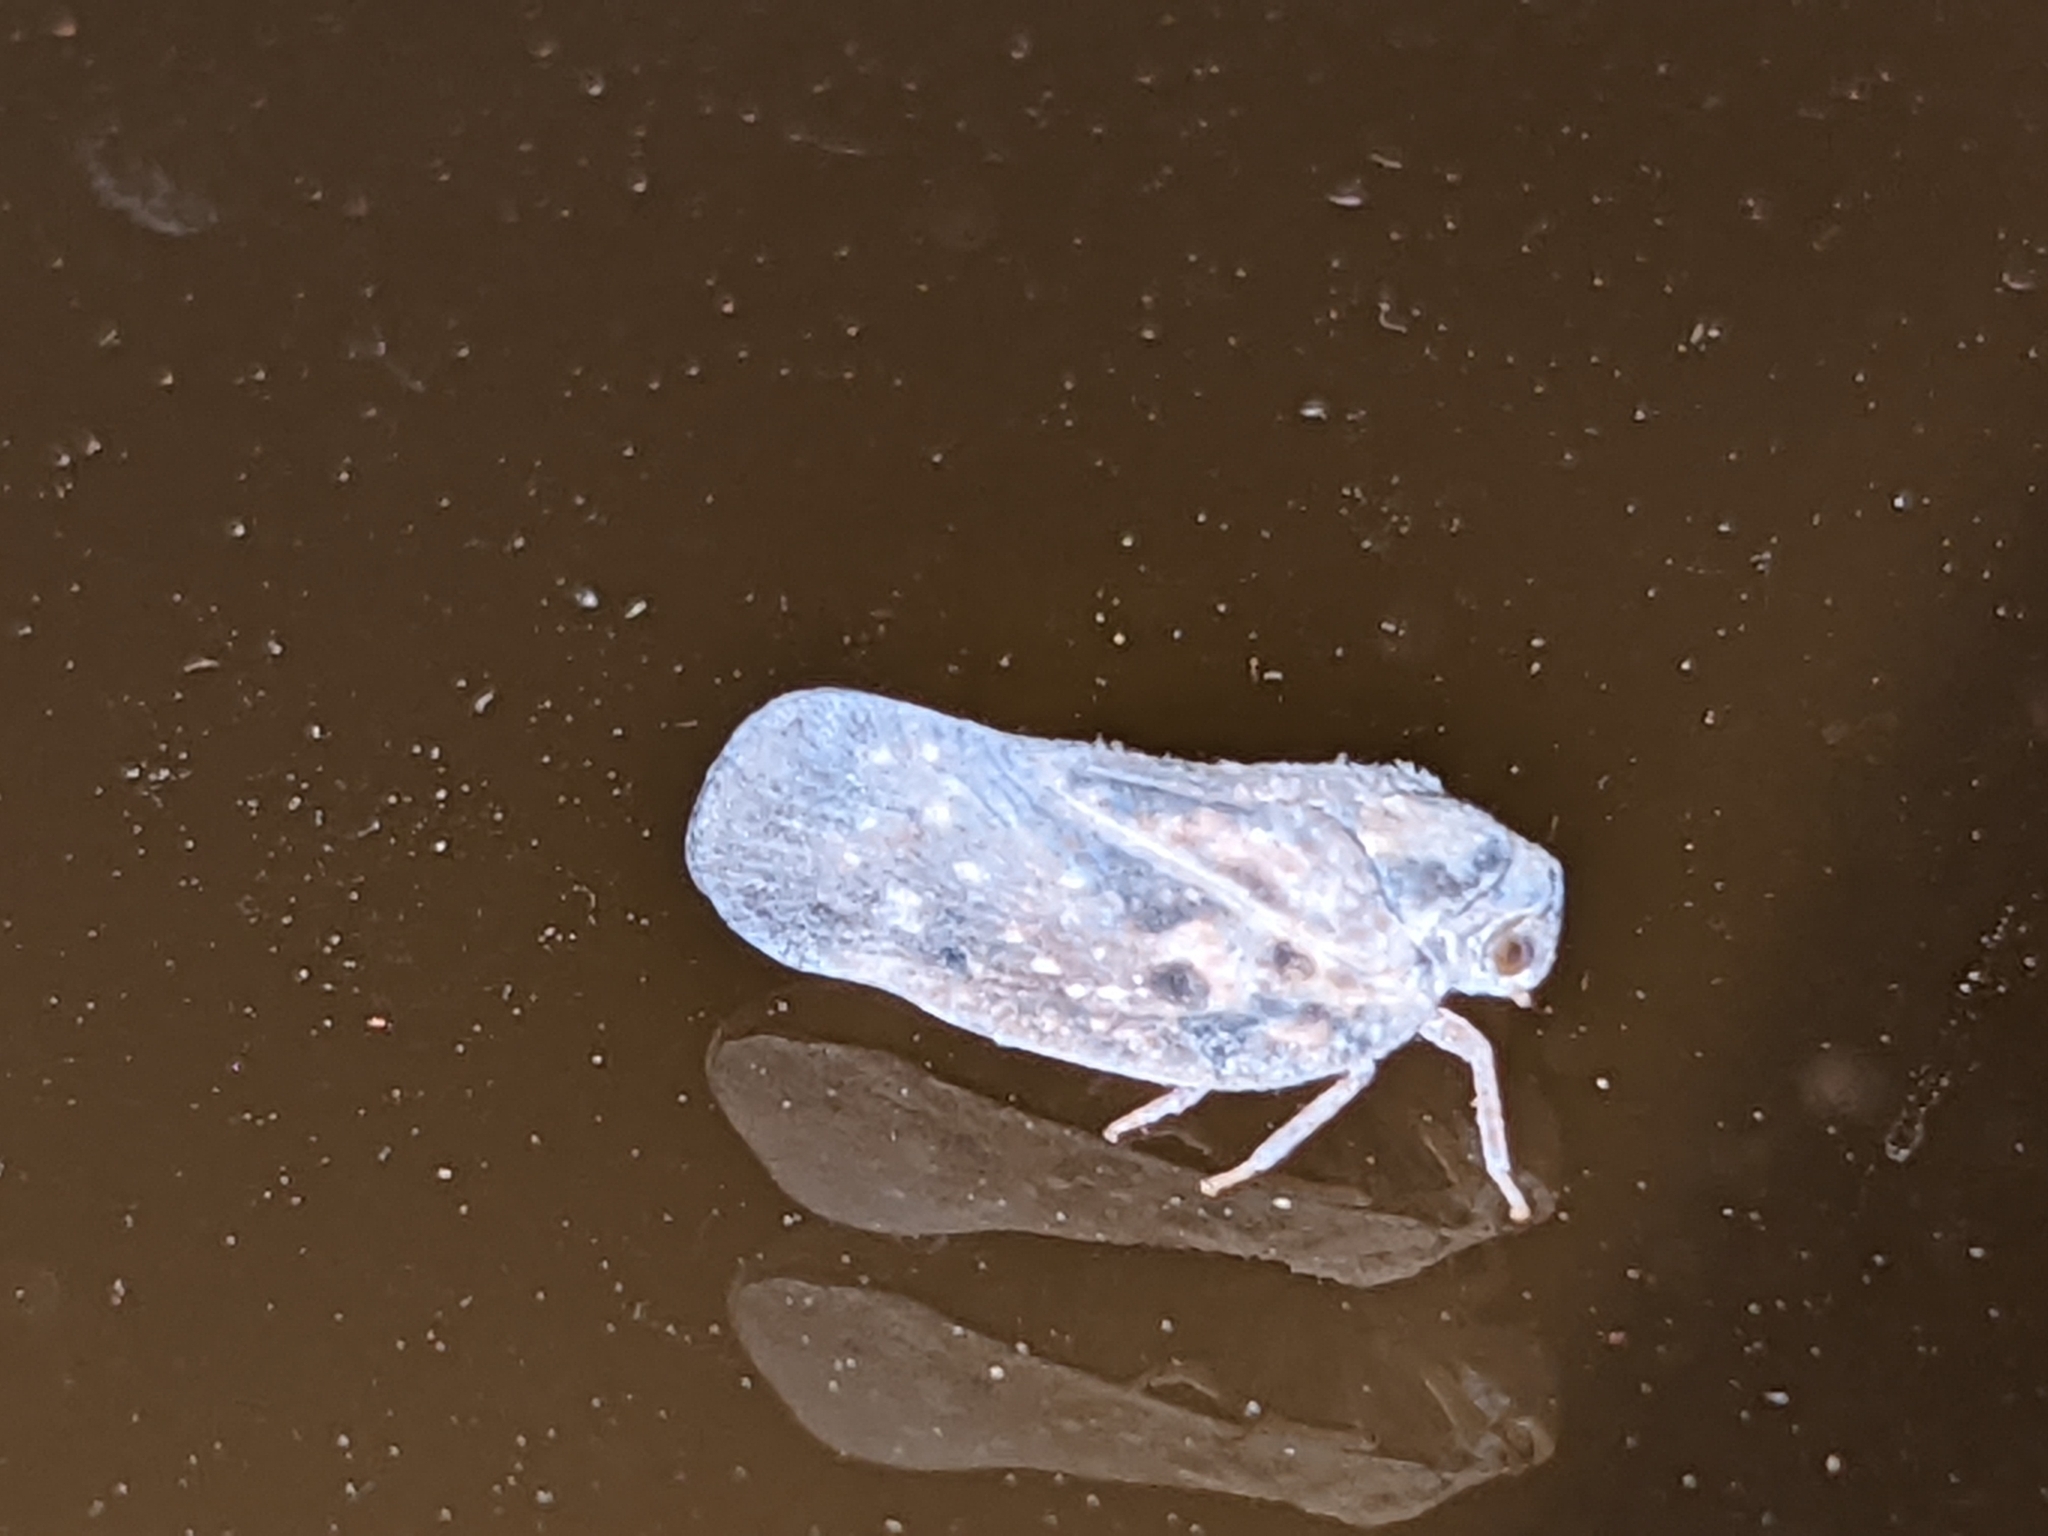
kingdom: Animalia
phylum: Arthropoda
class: Insecta
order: Hemiptera
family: Flatidae
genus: Metcalfa
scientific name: Metcalfa pruinosa
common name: Citrus flatid planthopper
